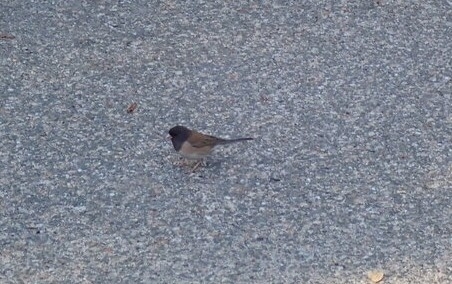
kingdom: Animalia
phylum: Chordata
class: Aves
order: Passeriformes
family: Passerellidae
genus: Junco
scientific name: Junco hyemalis
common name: Dark-eyed junco
